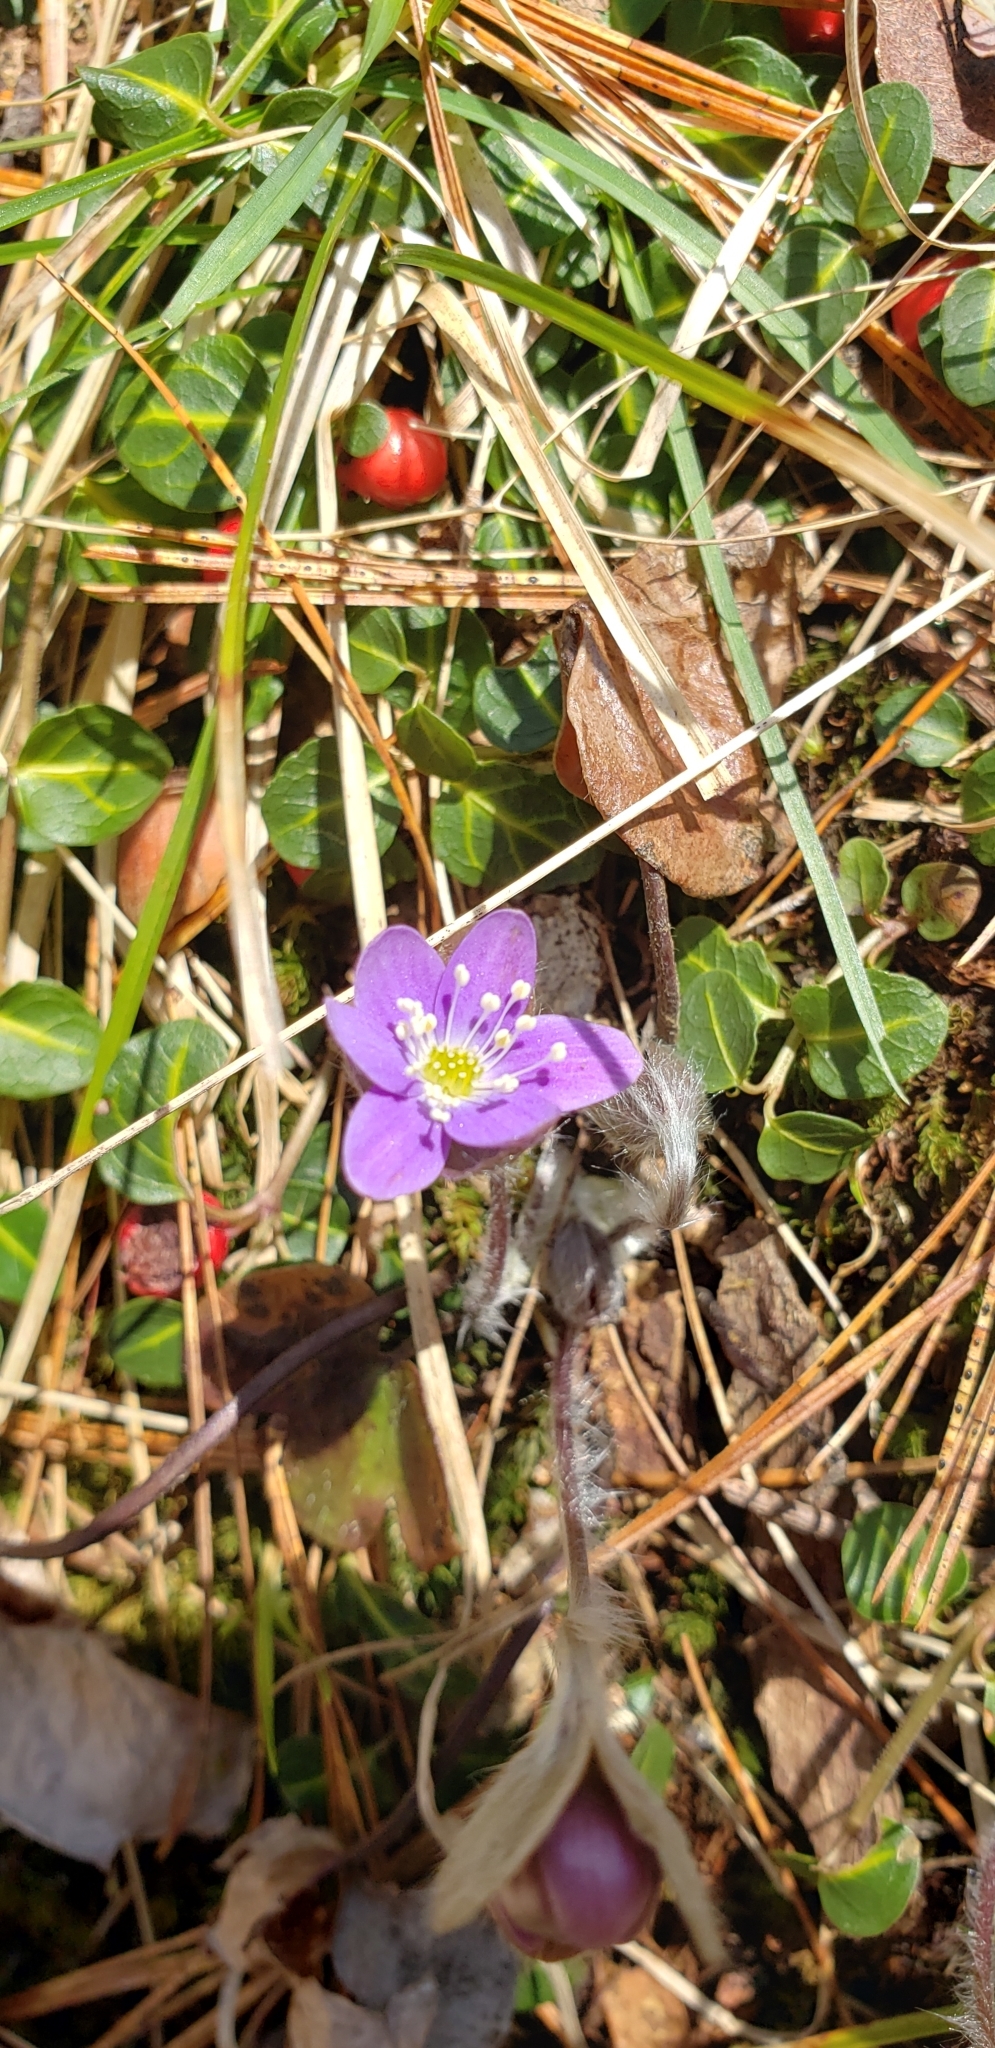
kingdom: Plantae
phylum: Tracheophyta
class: Magnoliopsida
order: Ranunculales
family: Ranunculaceae
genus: Hepatica
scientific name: Hepatica americana
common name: American hepatica
